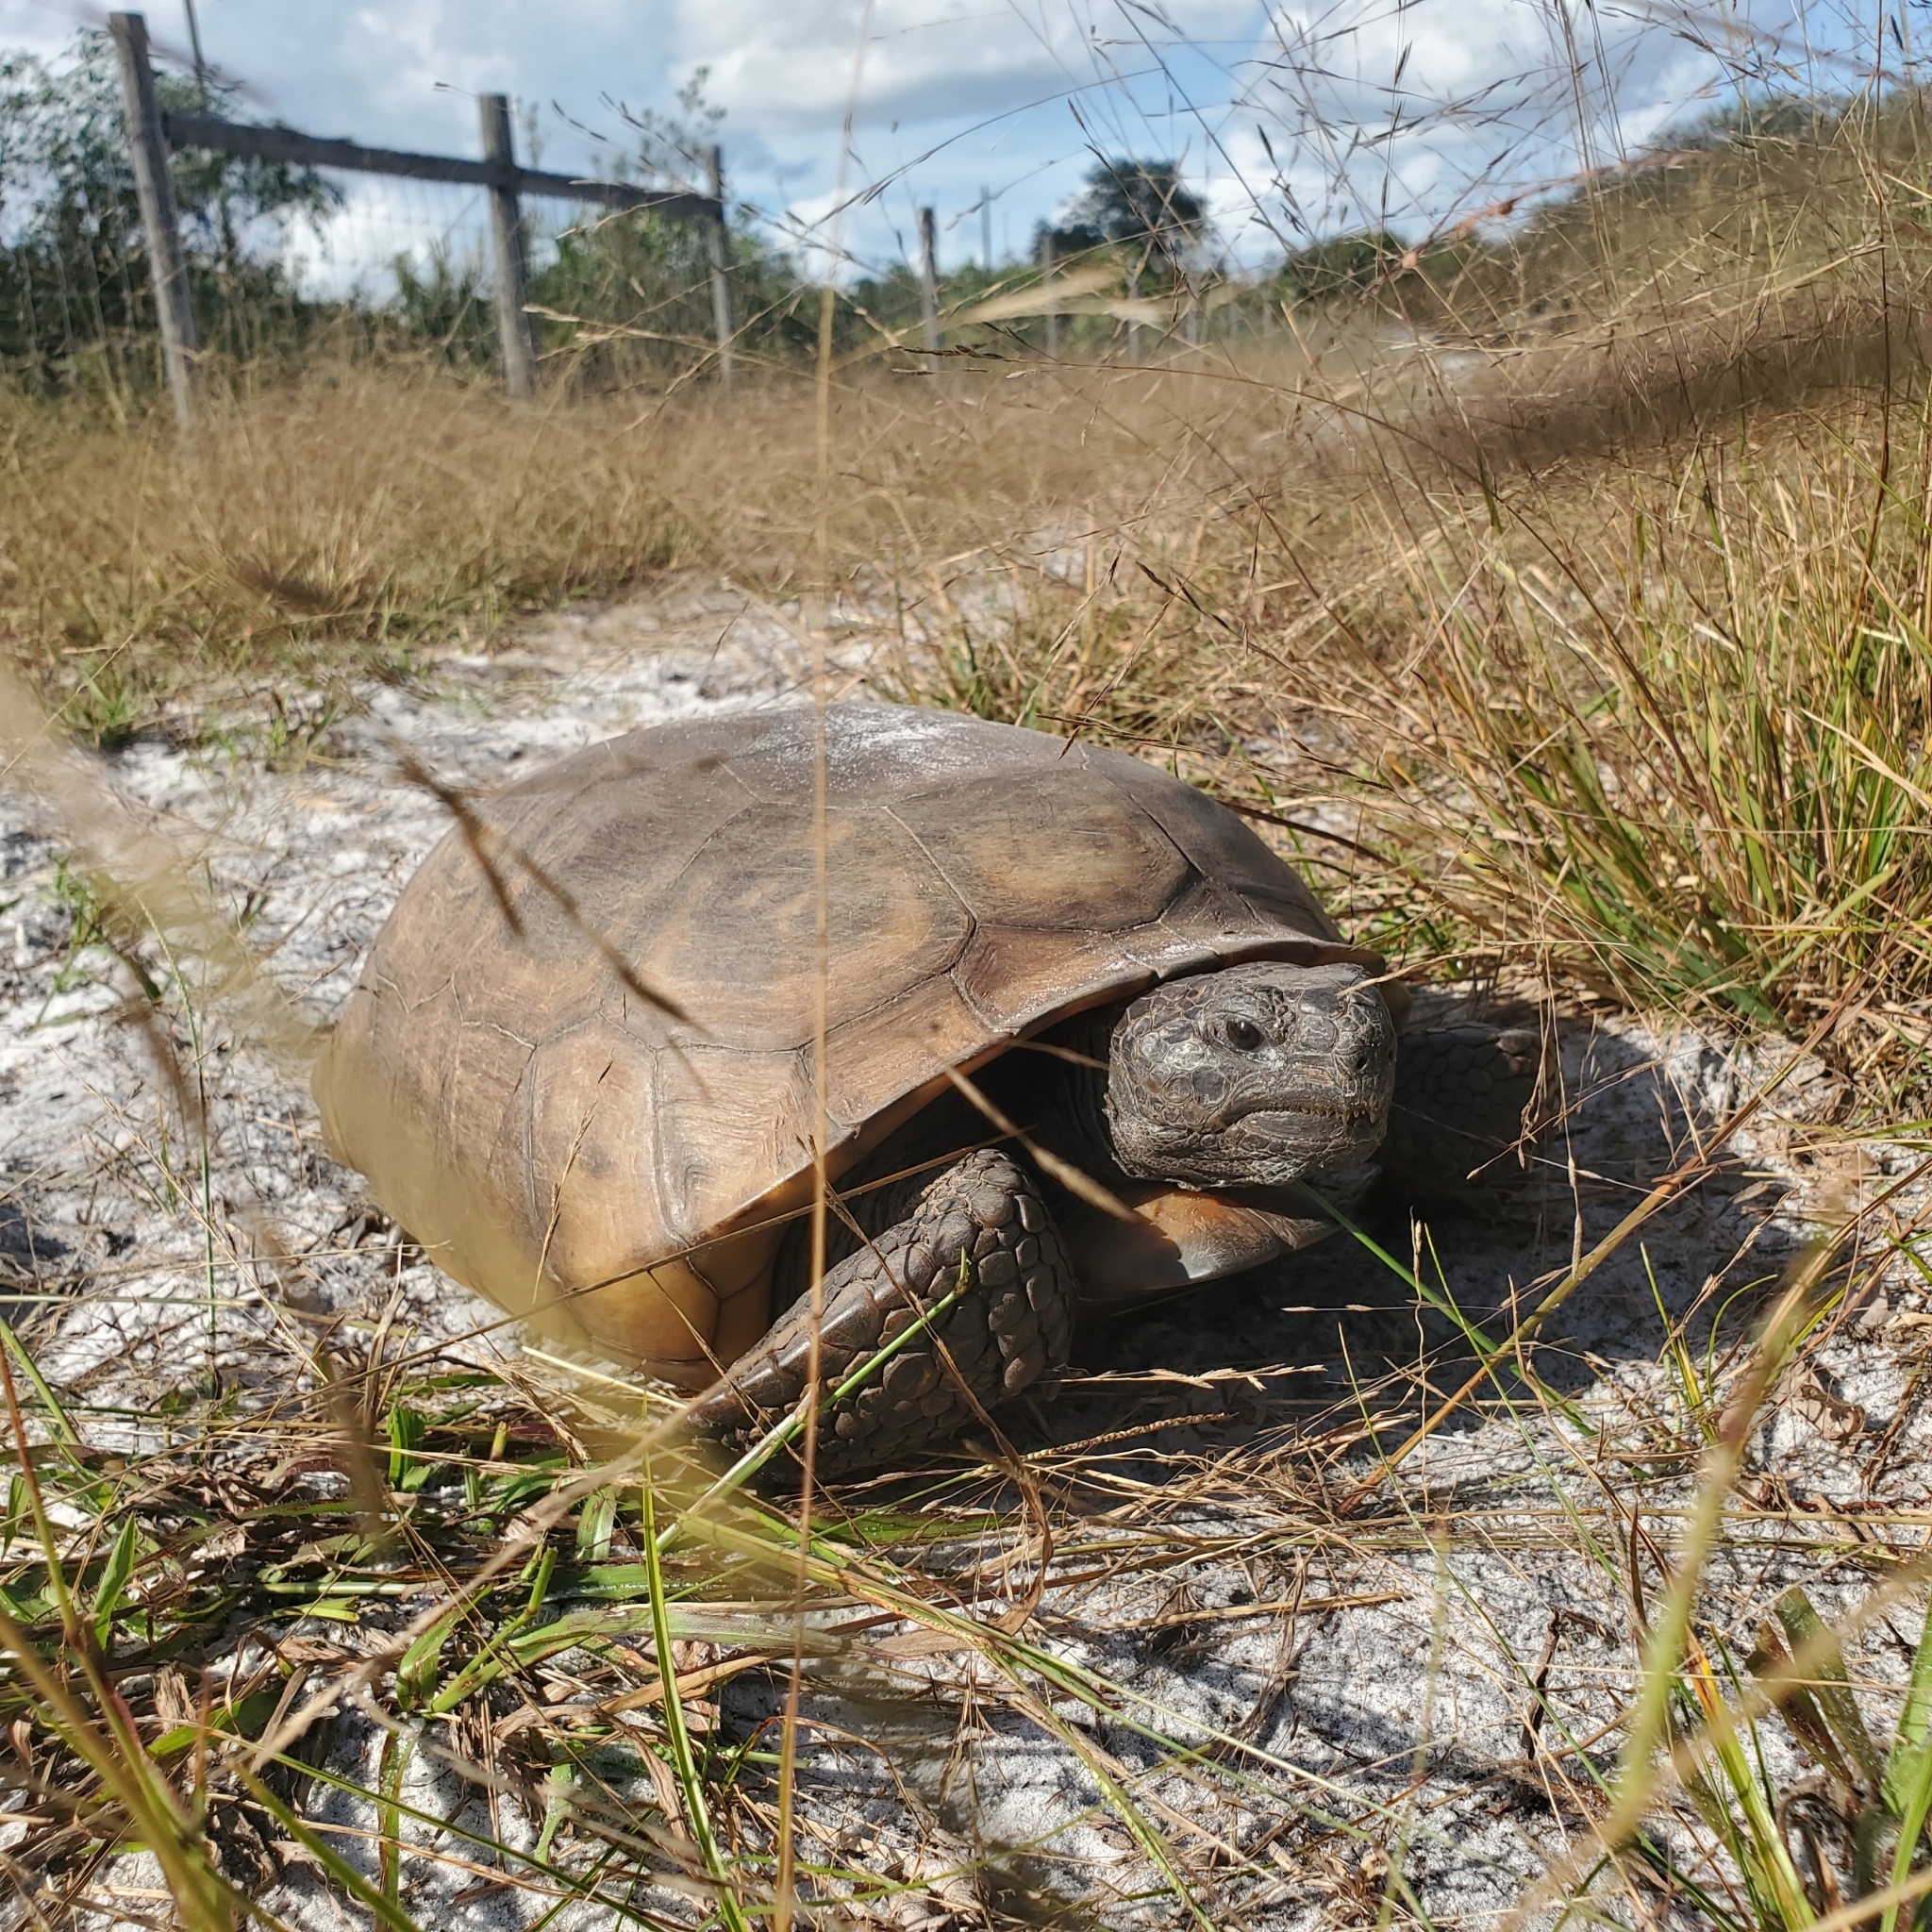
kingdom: Animalia
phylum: Chordata
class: Testudines
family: Testudinidae
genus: Gopherus
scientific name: Gopherus polyphemus
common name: Florida gopher tortoise
